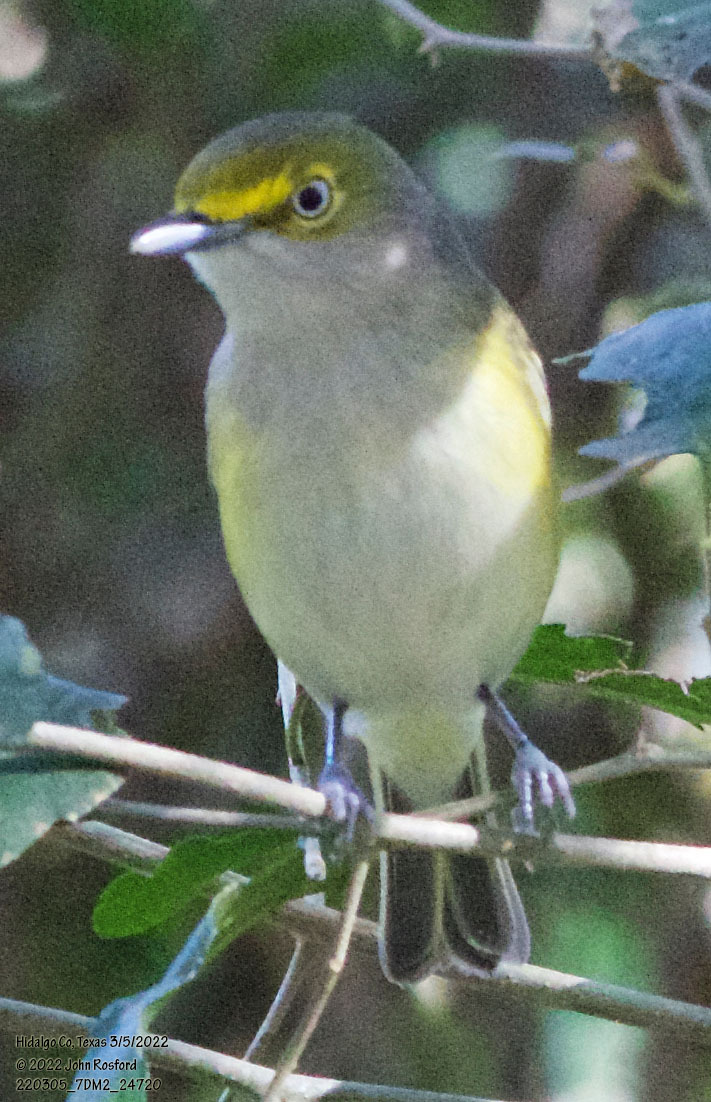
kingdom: Animalia
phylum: Chordata
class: Aves
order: Passeriformes
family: Vireonidae
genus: Vireo
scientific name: Vireo griseus
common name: White-eyed vireo
